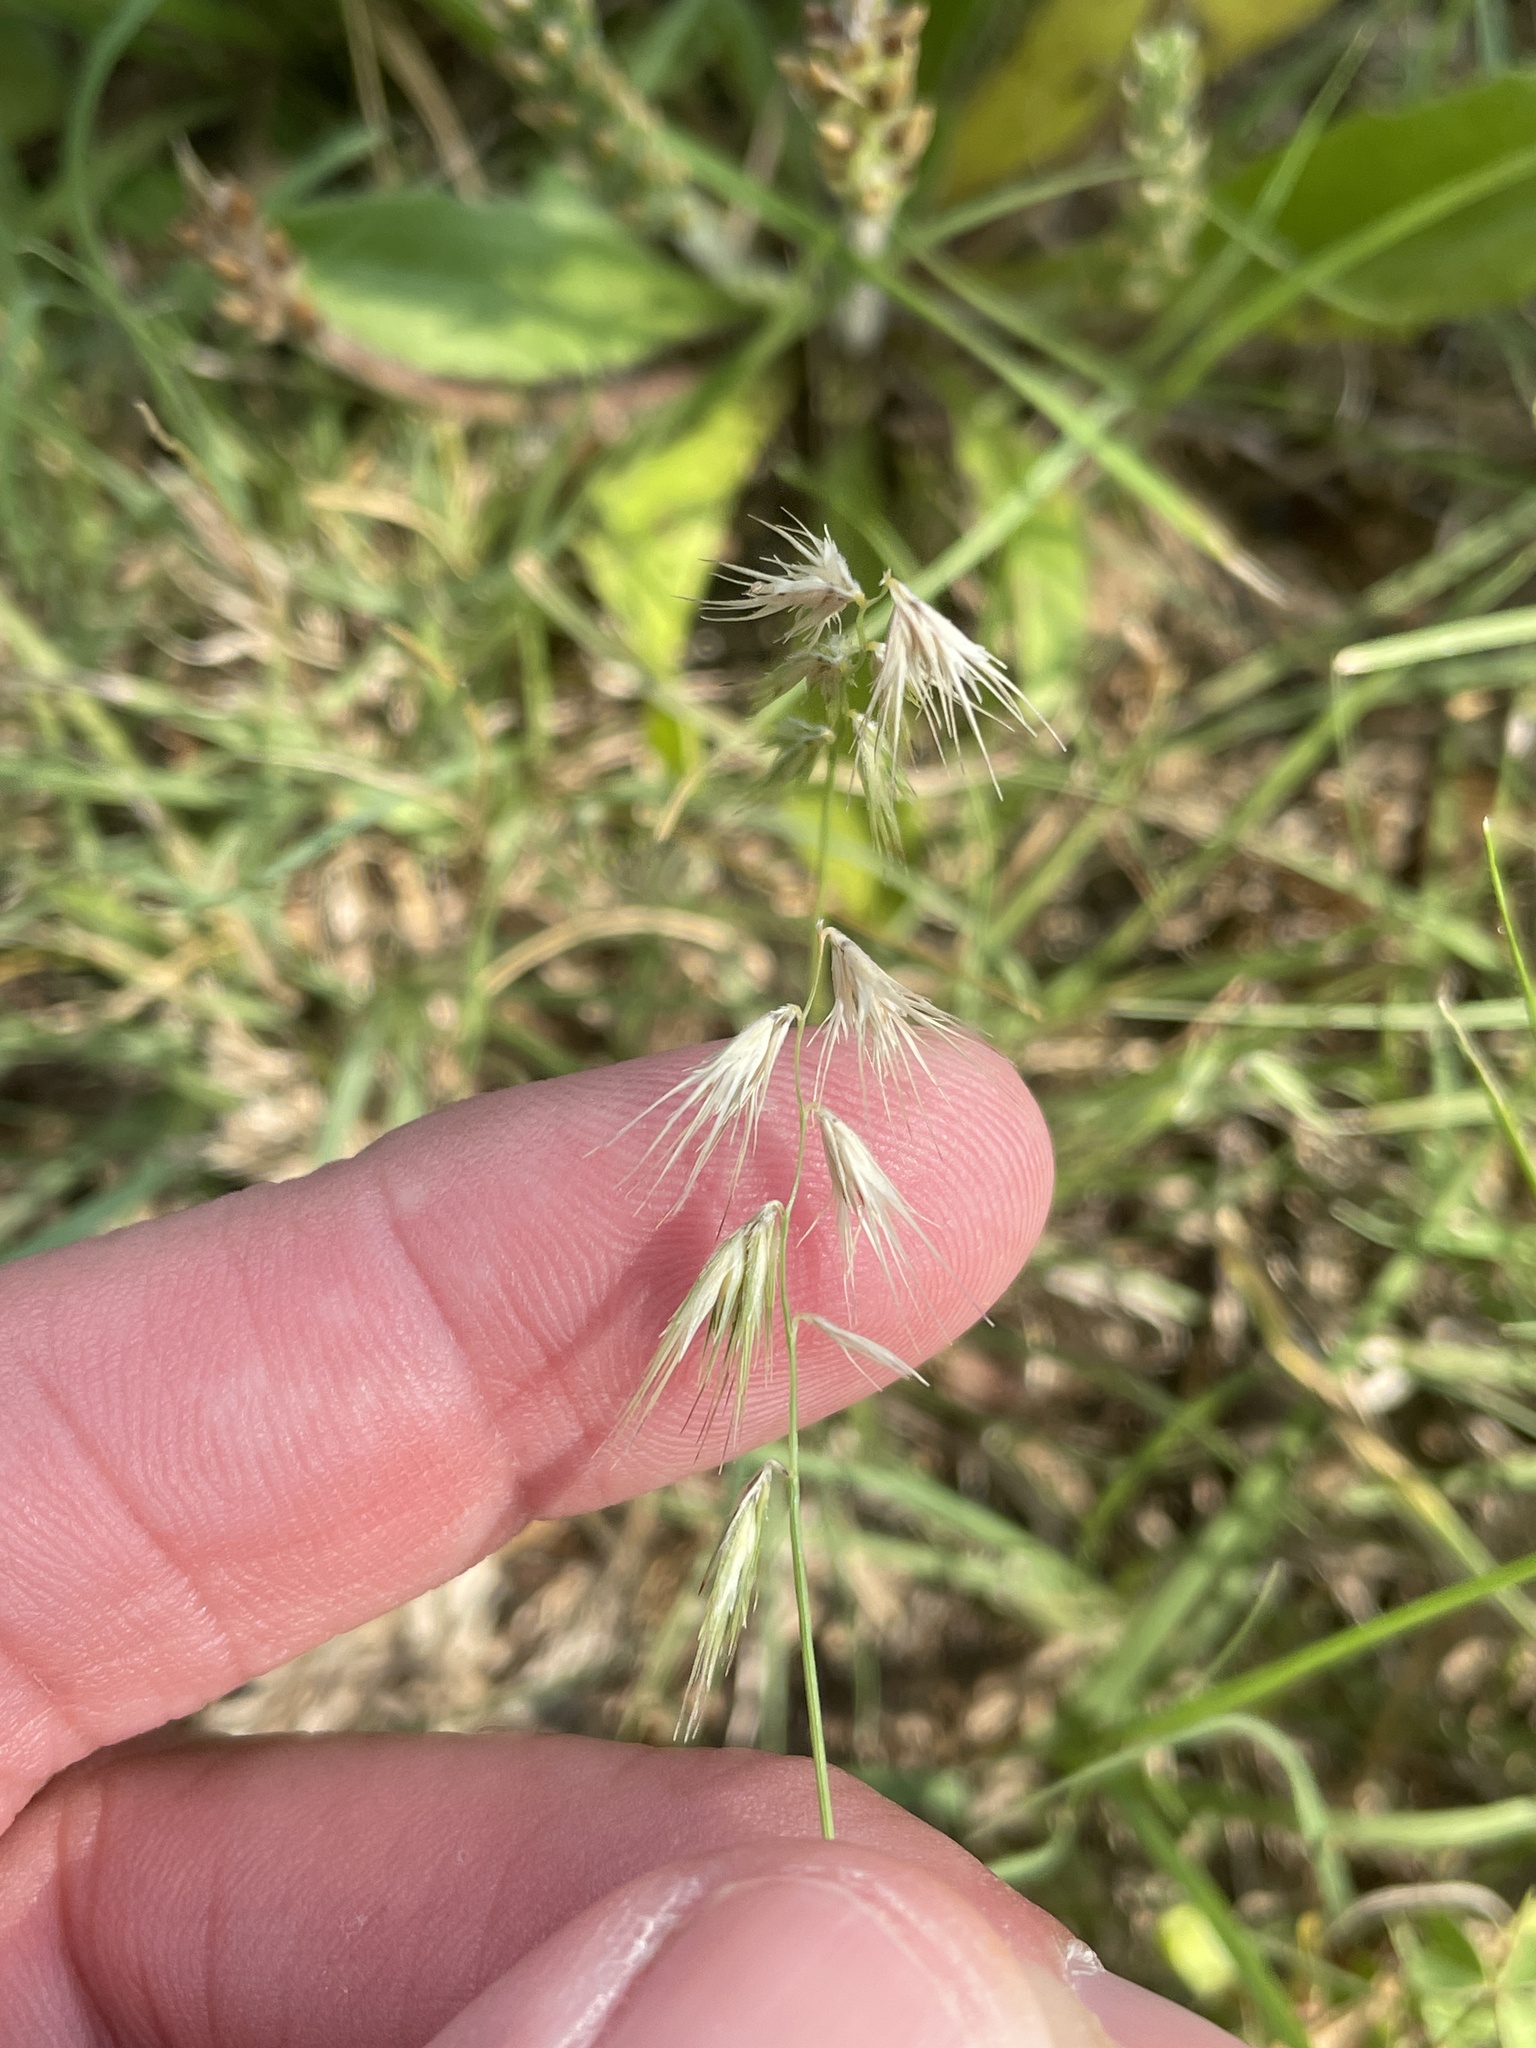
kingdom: Plantae
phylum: Tracheophyta
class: Liliopsida
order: Poales
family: Poaceae
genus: Bouteloua
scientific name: Bouteloua rigidiseta
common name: Texas grama
